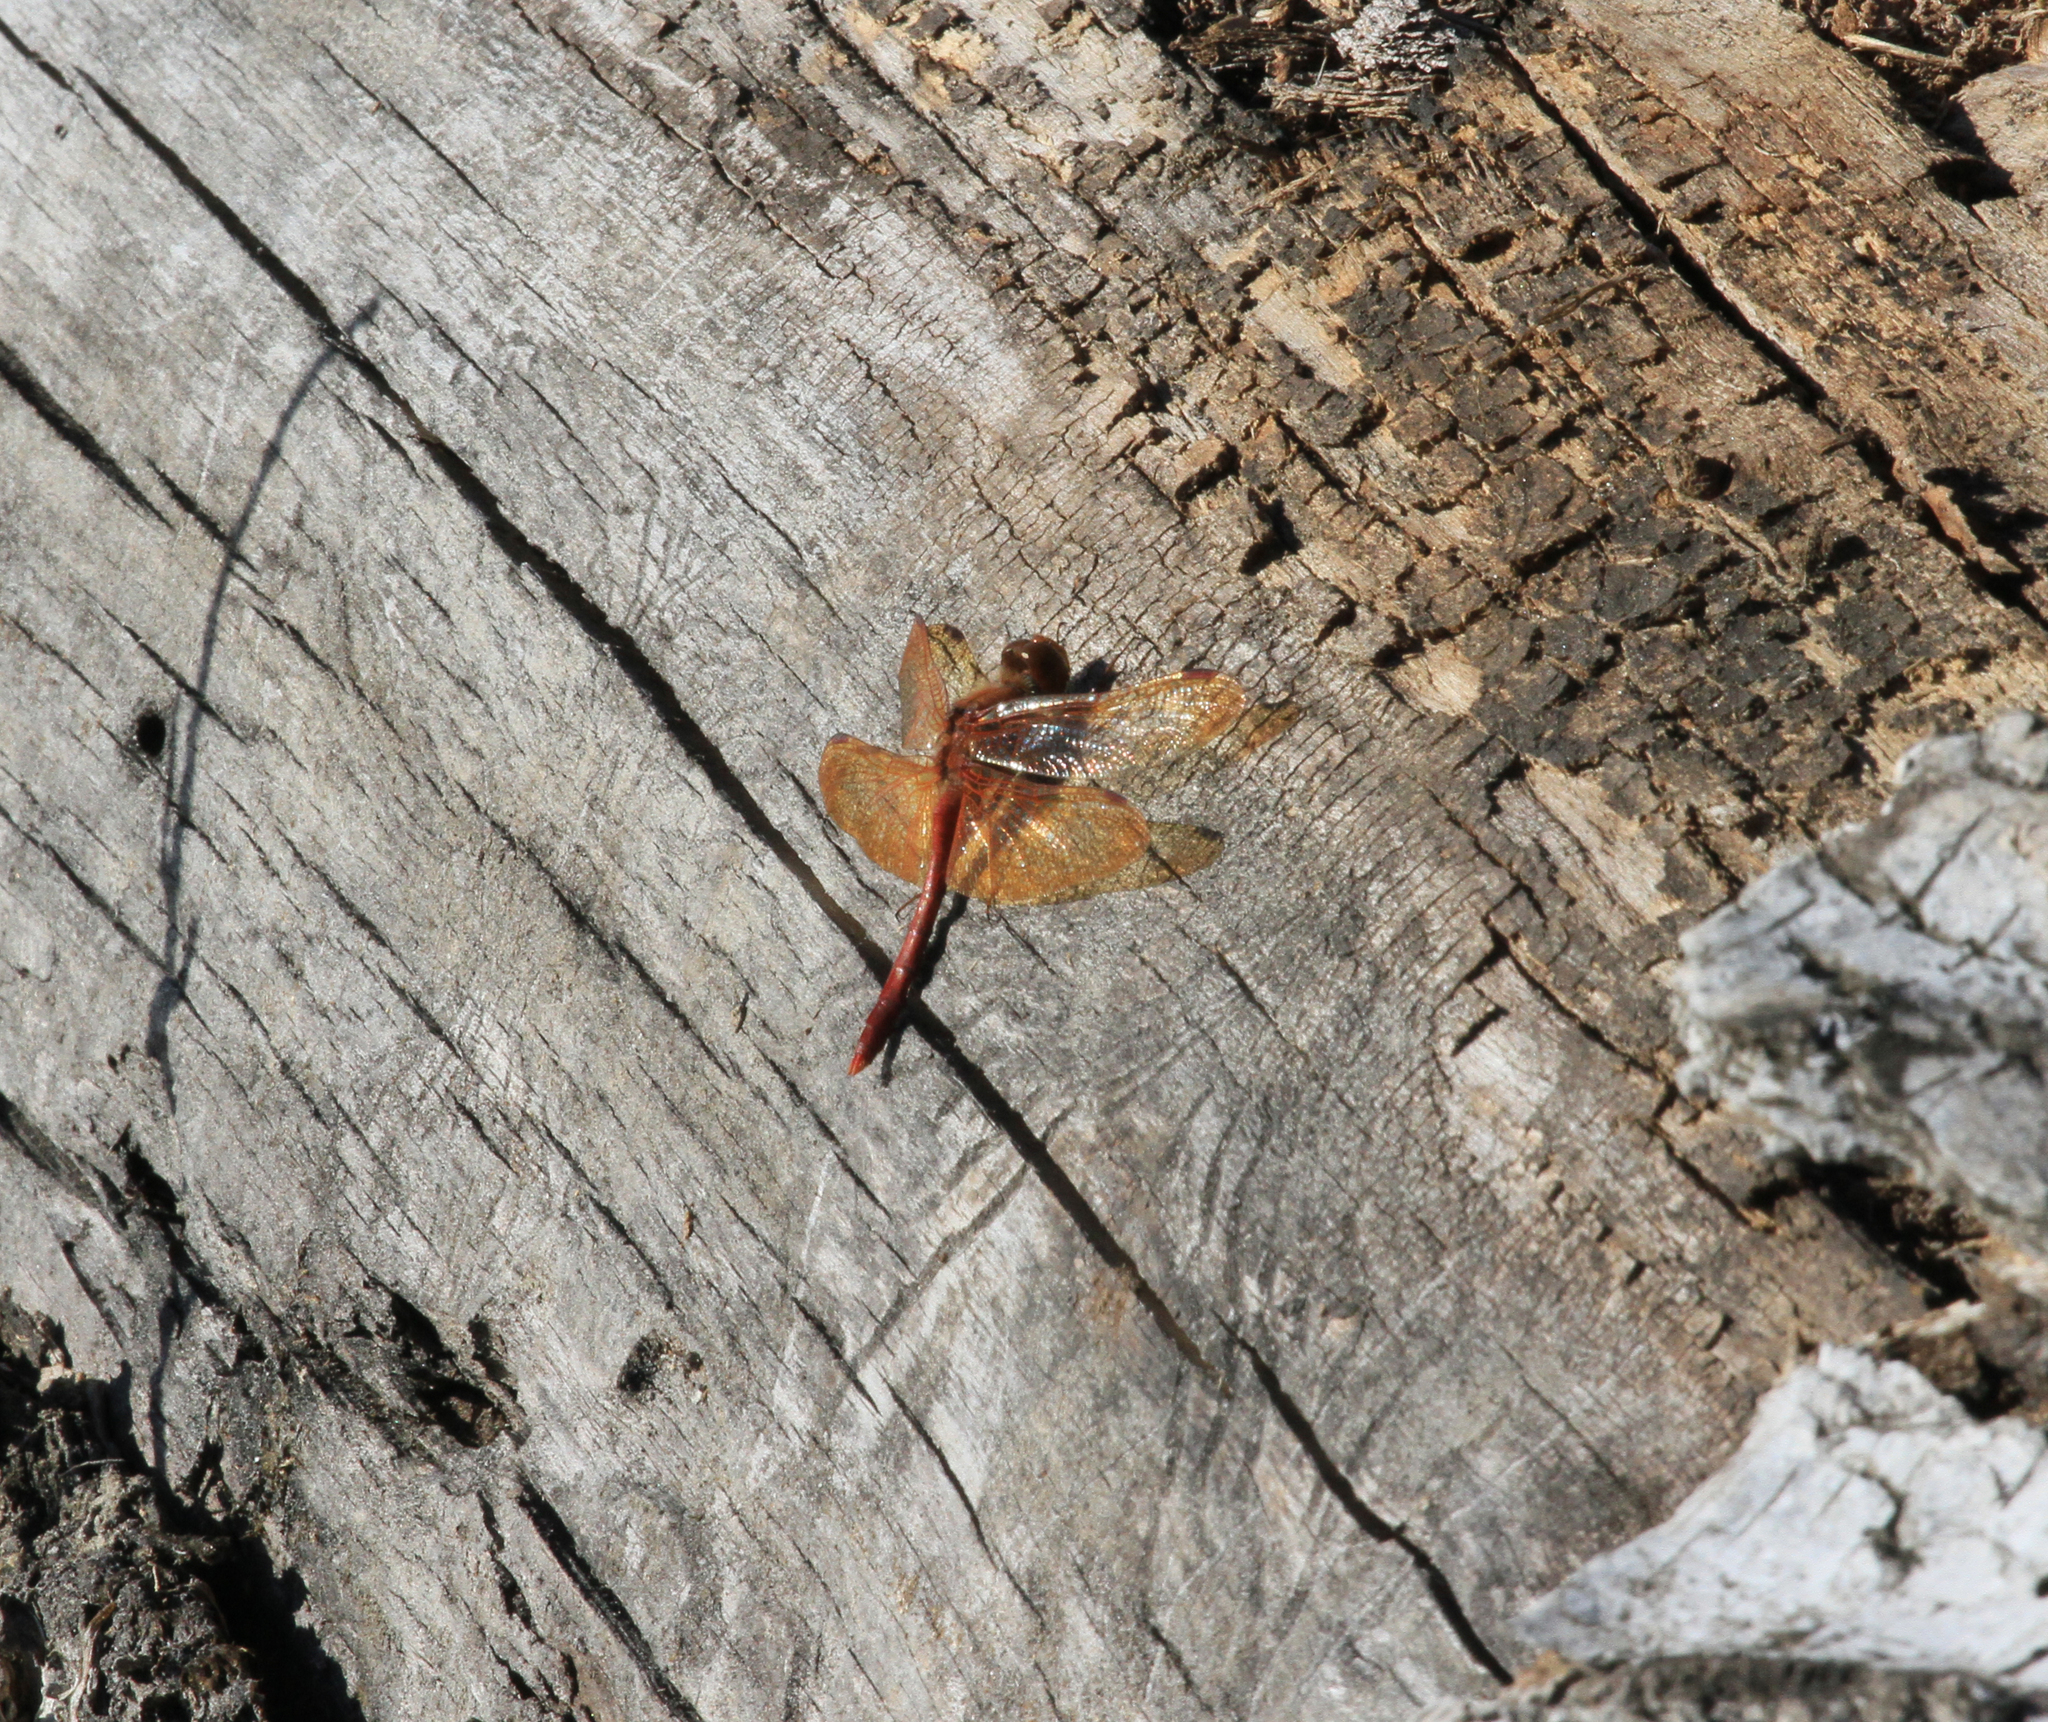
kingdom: Animalia
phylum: Arthropoda
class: Insecta
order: Odonata
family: Libellulidae
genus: Sympetrum
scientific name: Sympetrum croceolum
